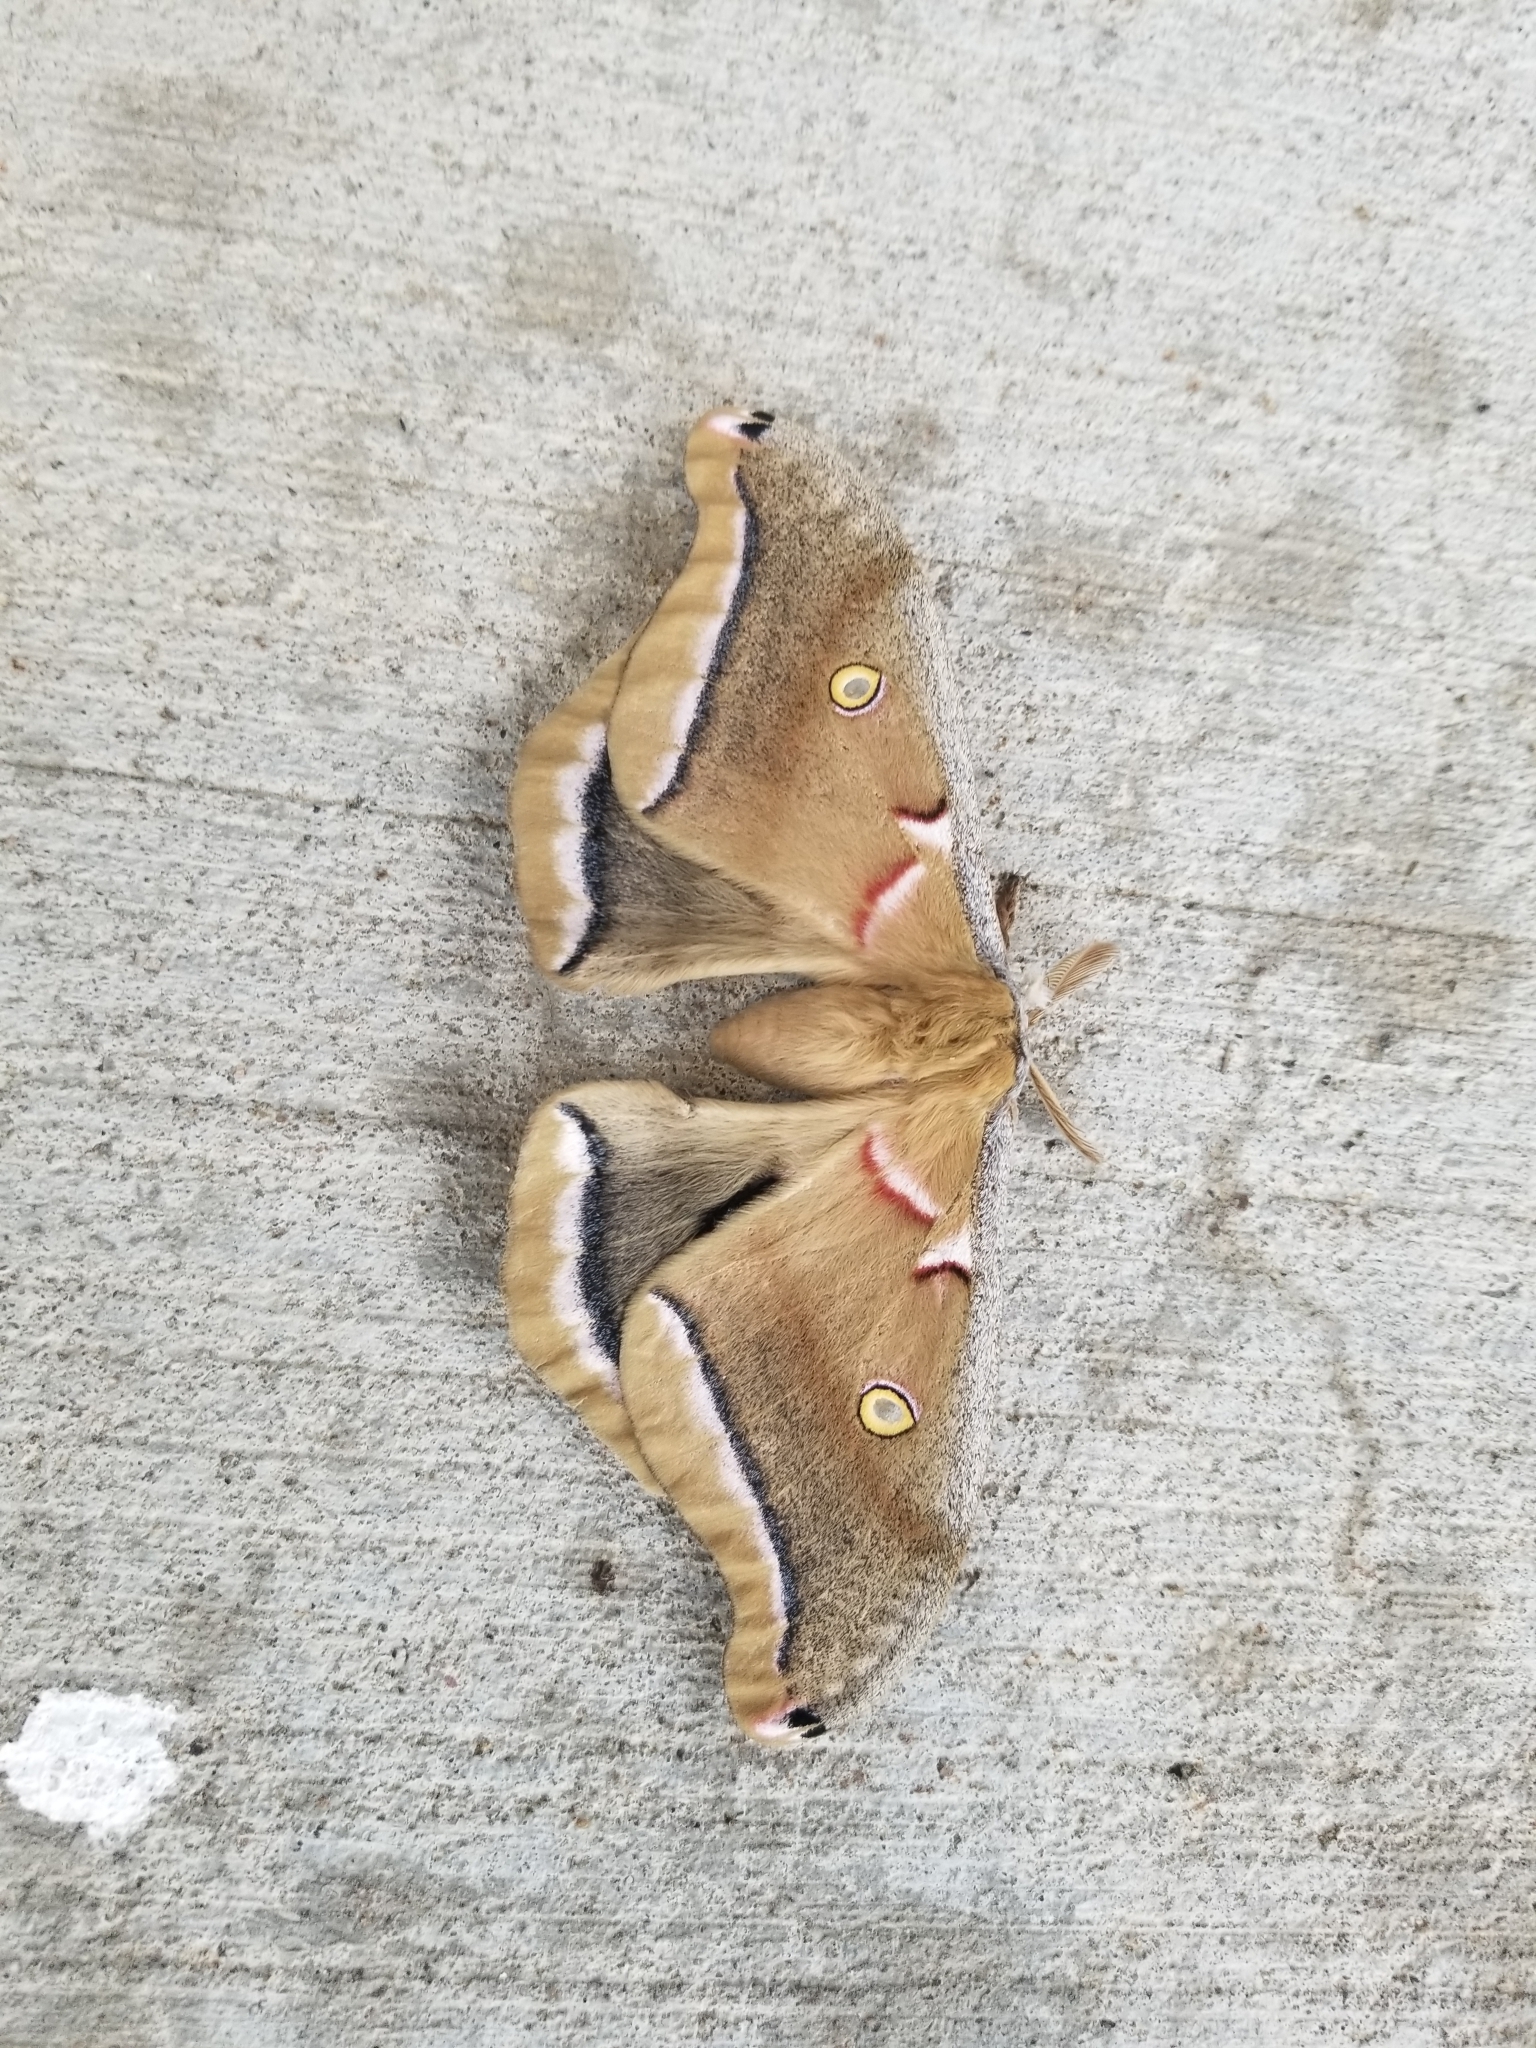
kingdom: Animalia
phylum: Arthropoda
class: Insecta
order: Lepidoptera
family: Saturniidae
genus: Antheraea
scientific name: Antheraea polyphemus
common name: Polyphemus moth
